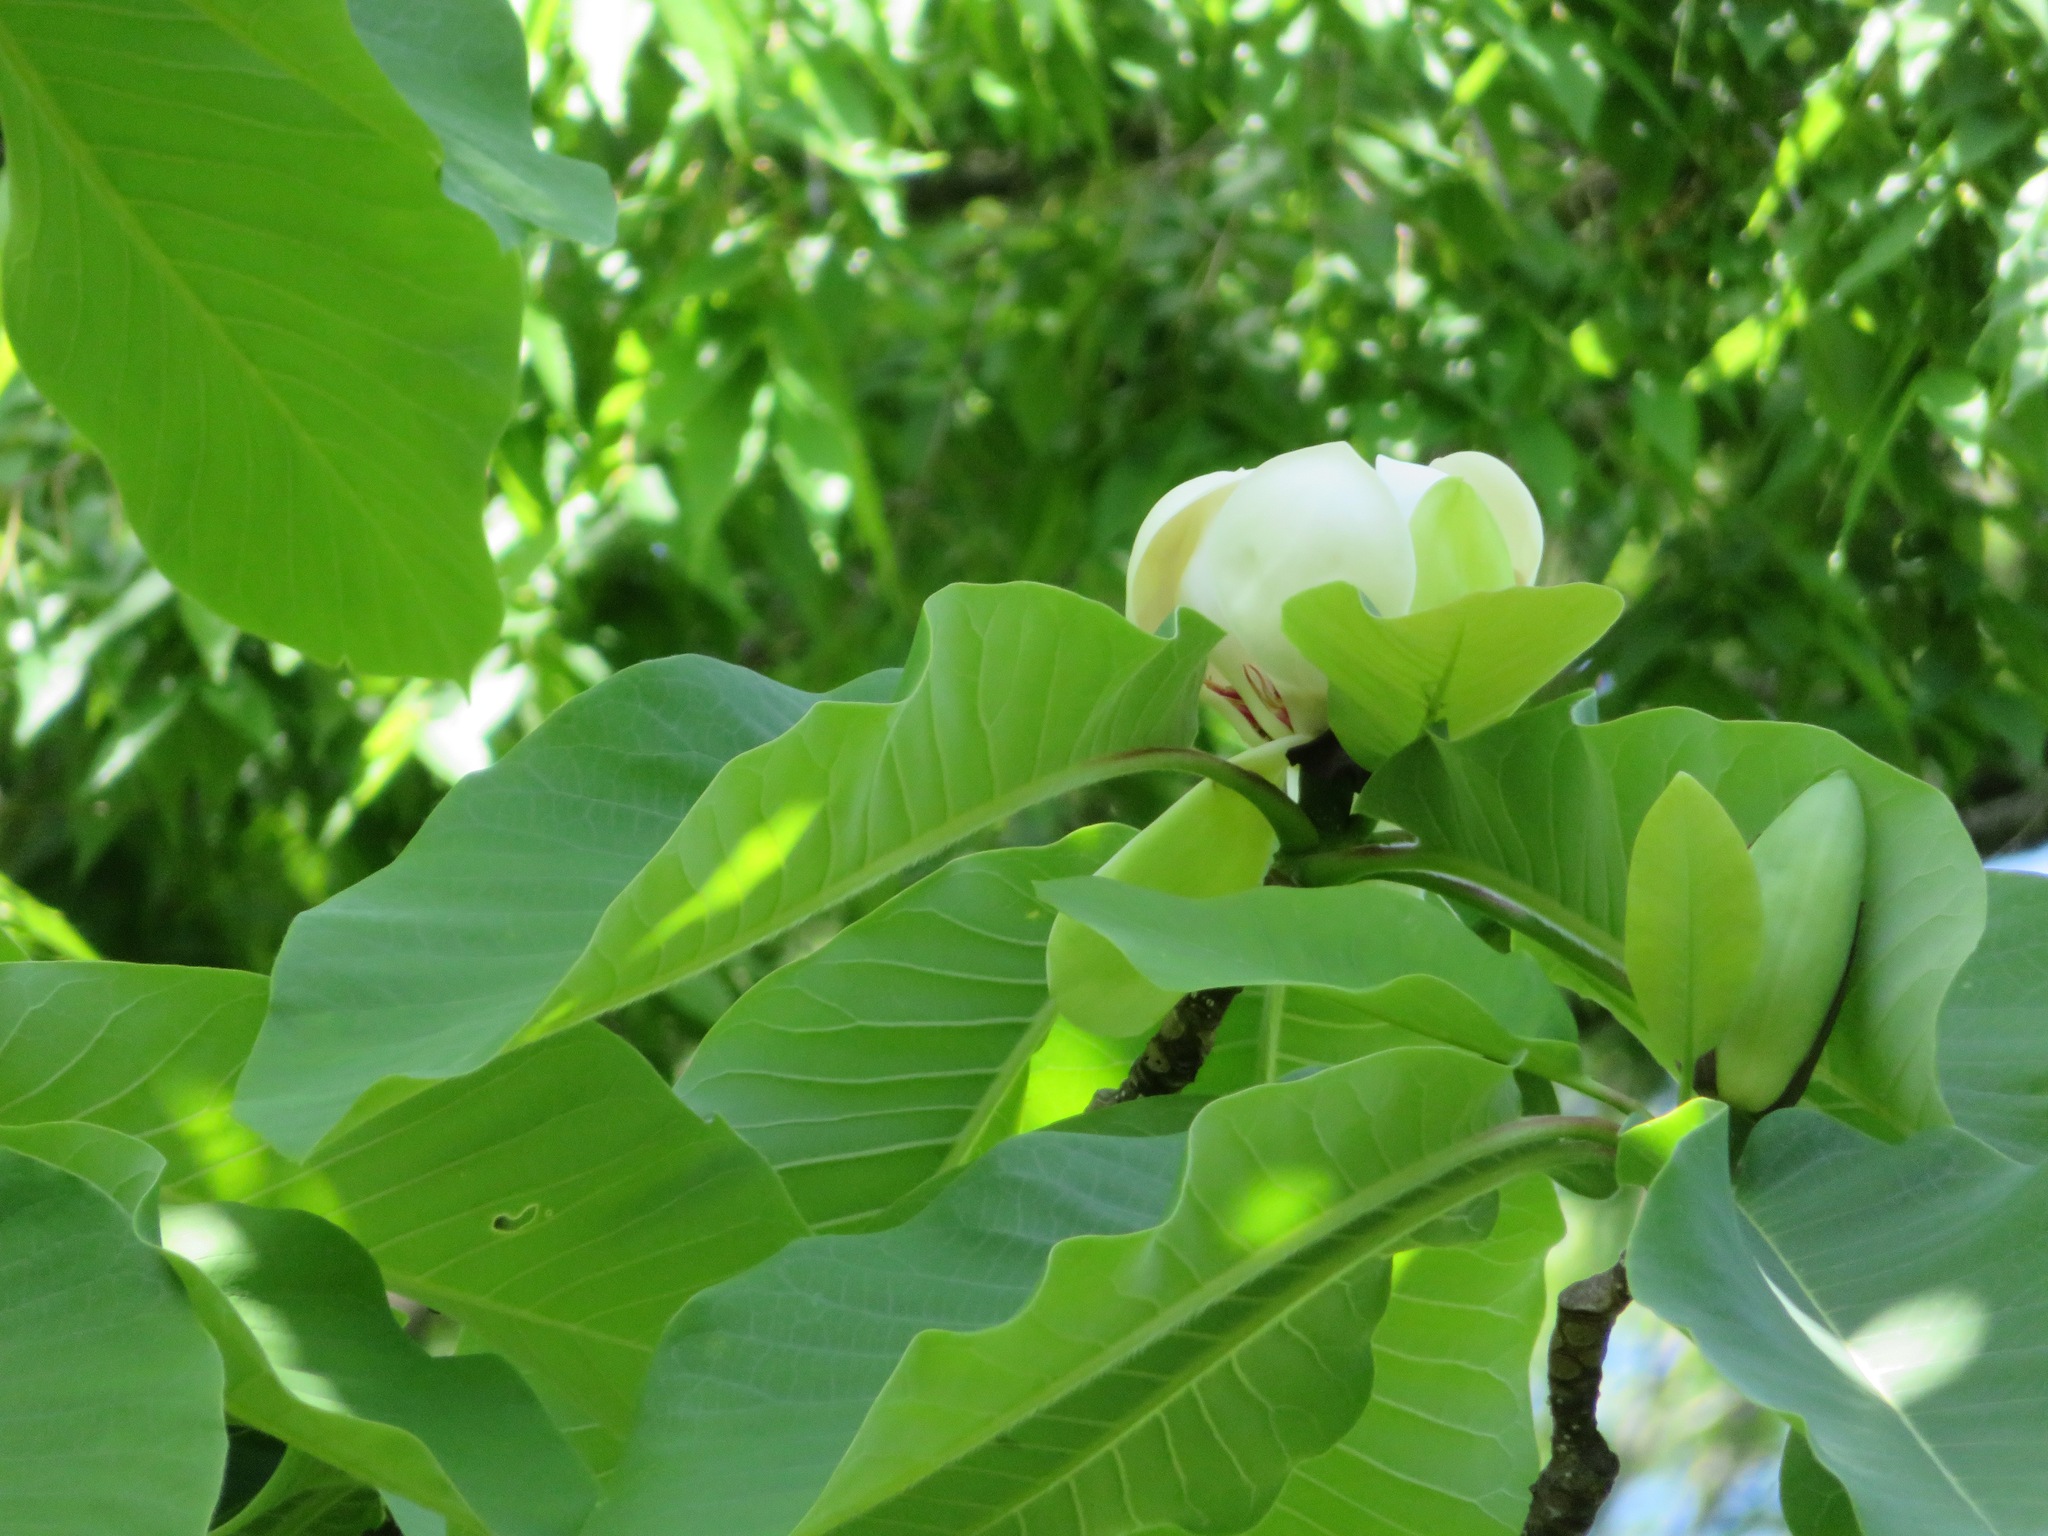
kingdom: Plantae
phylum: Tracheophyta
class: Magnoliopsida
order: Magnoliales
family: Magnoliaceae
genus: Magnolia
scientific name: Magnolia obovata
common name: Japanese whitebark magnolia
